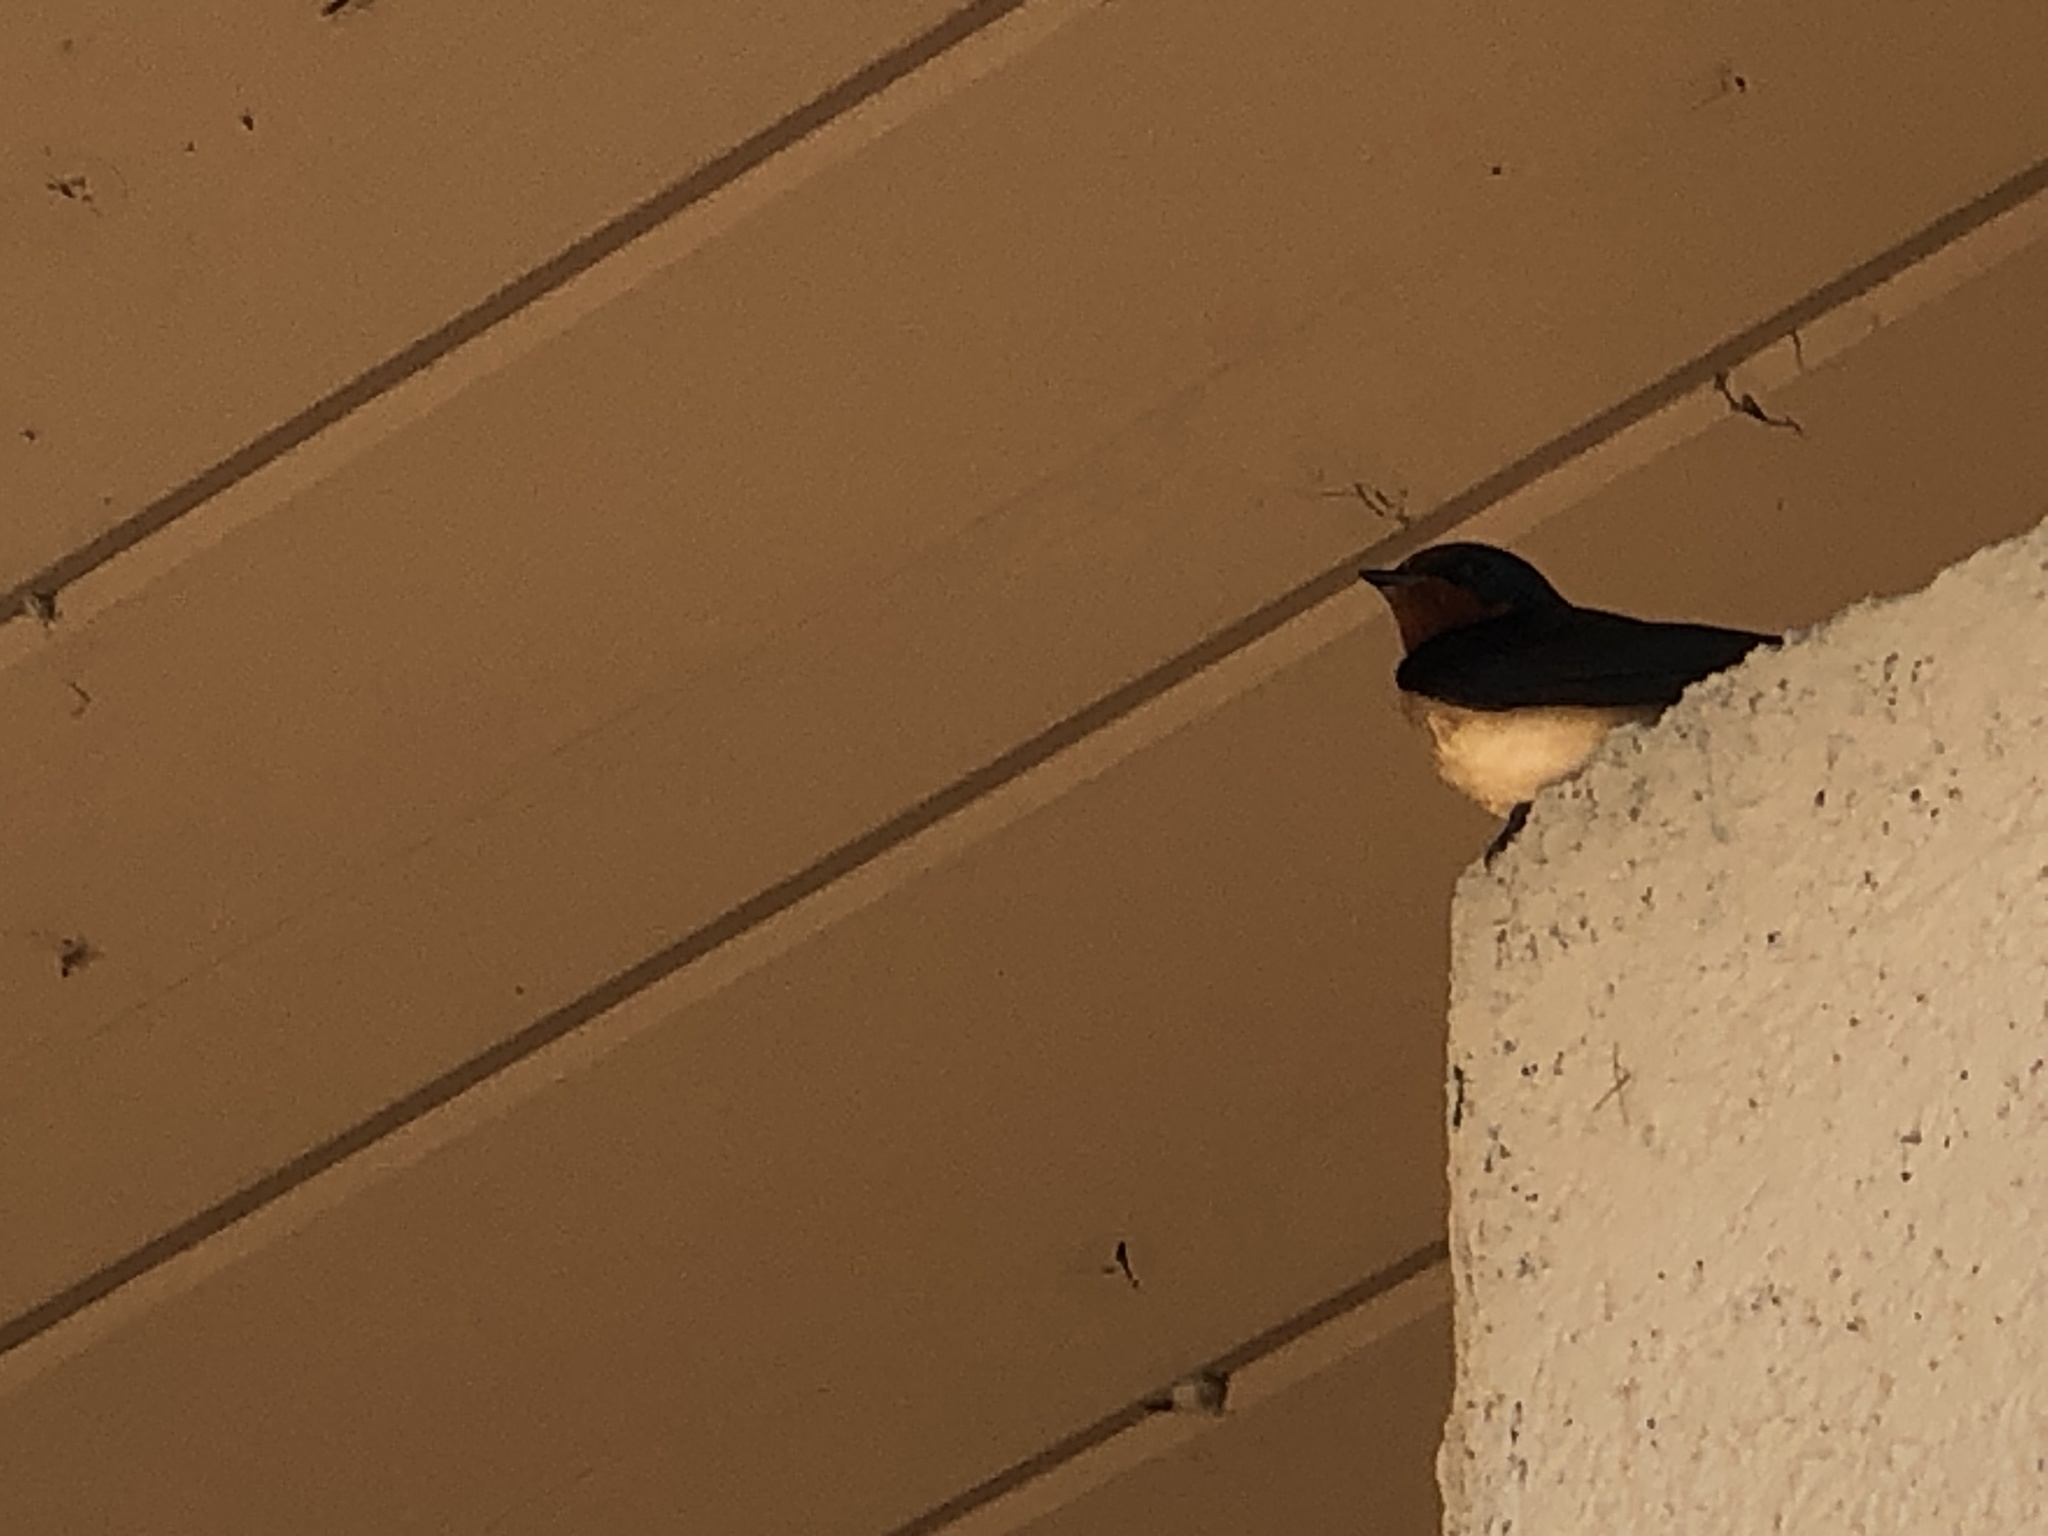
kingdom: Animalia
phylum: Chordata
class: Aves
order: Passeriformes
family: Hirundinidae
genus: Hirundo
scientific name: Hirundo rustica
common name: Barn swallow
